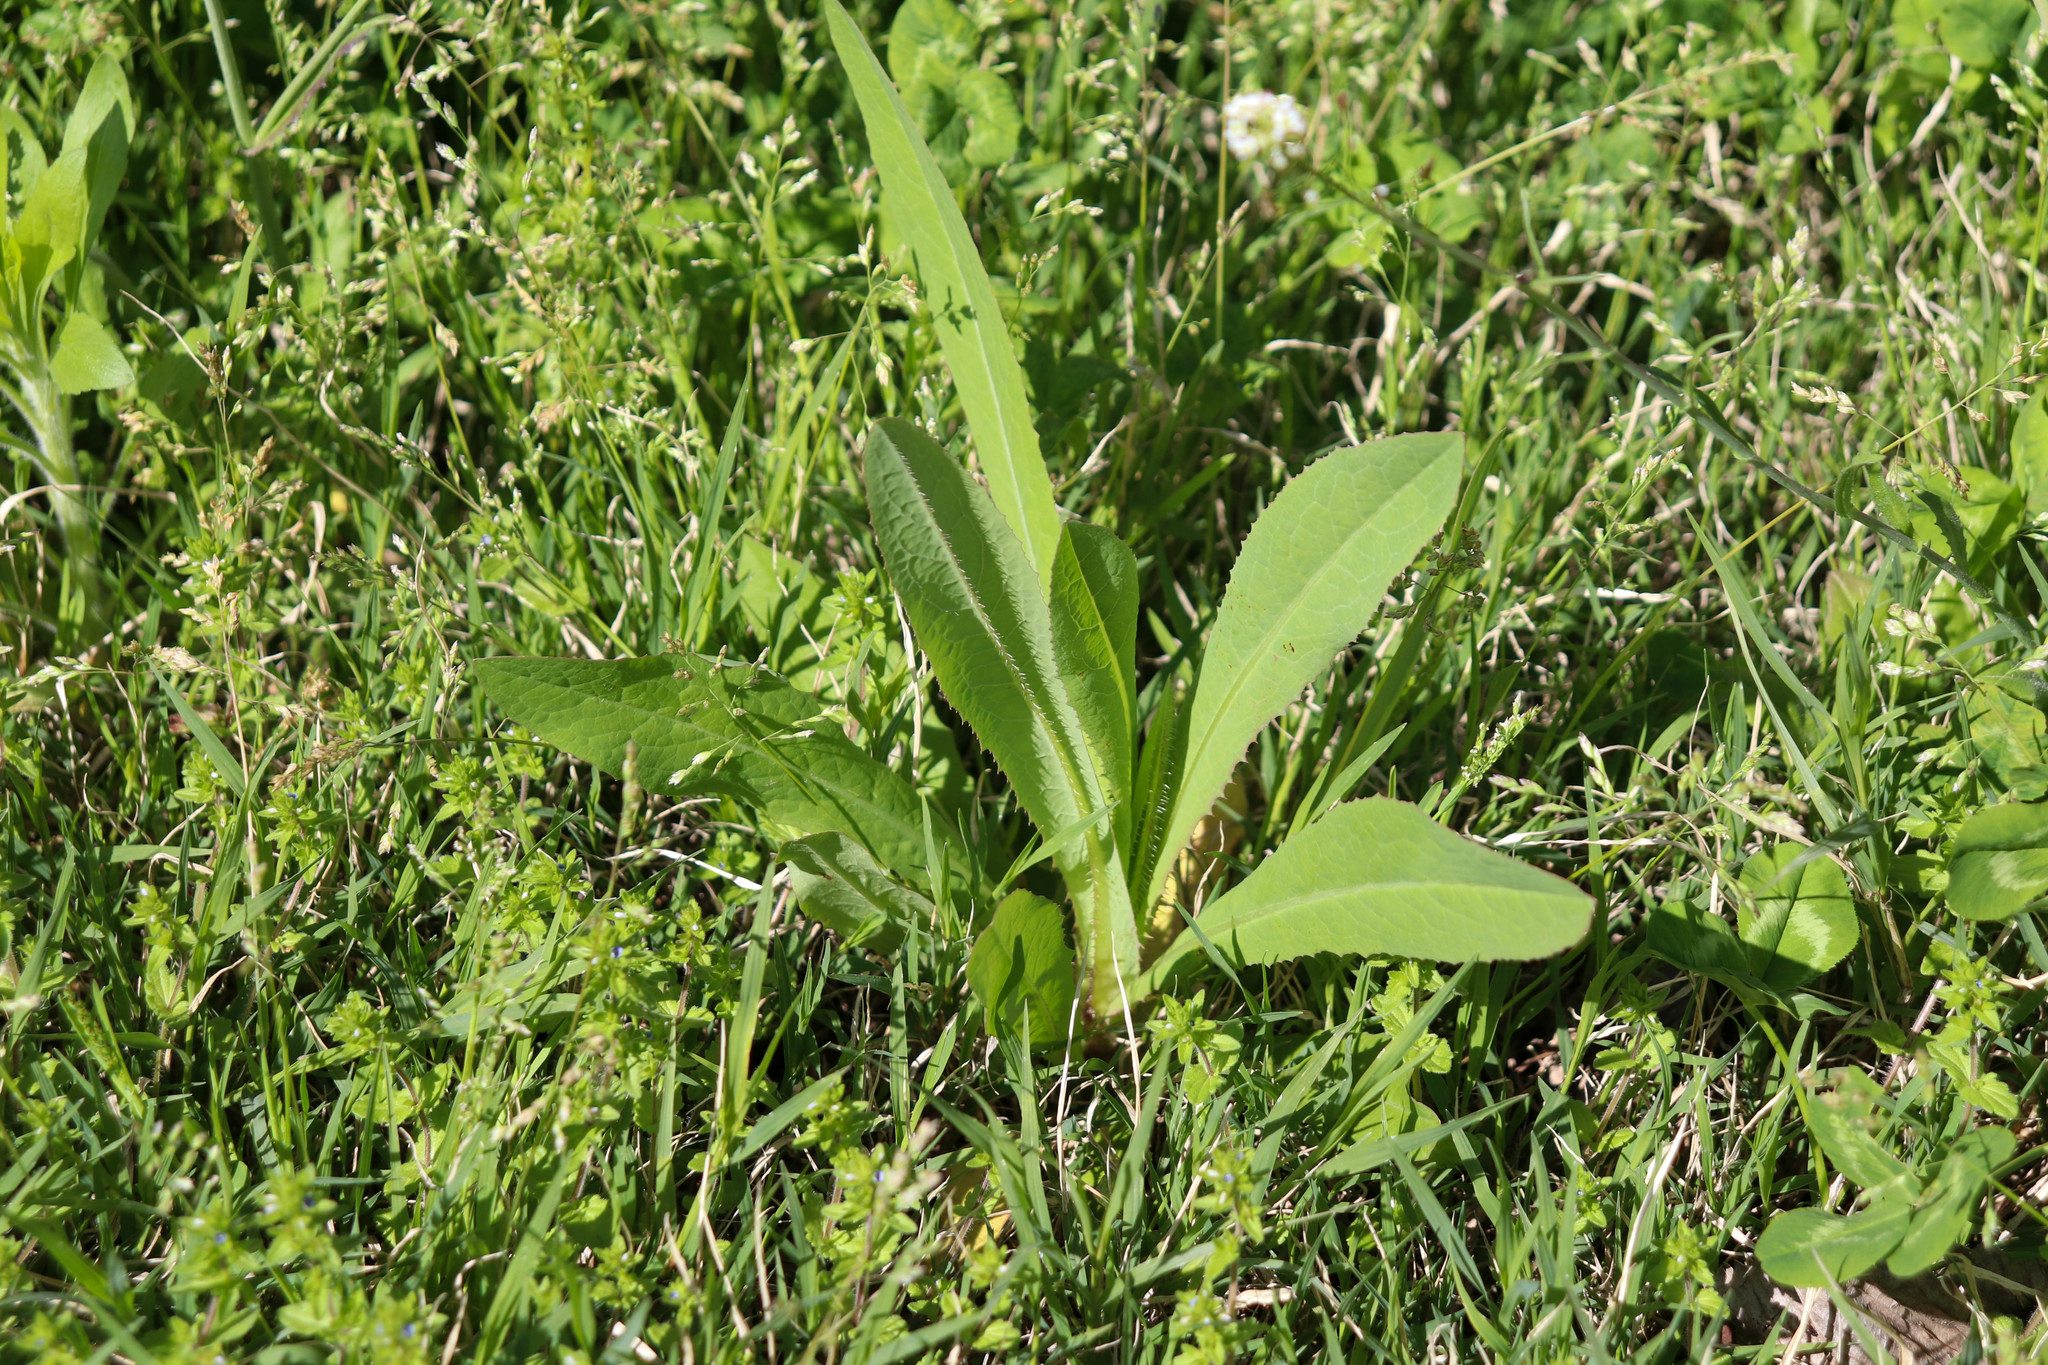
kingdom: Plantae
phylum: Tracheophyta
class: Magnoliopsida
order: Asterales
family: Asteraceae
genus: Lactuca
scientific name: Lactuca serriola
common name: Prickly lettuce
